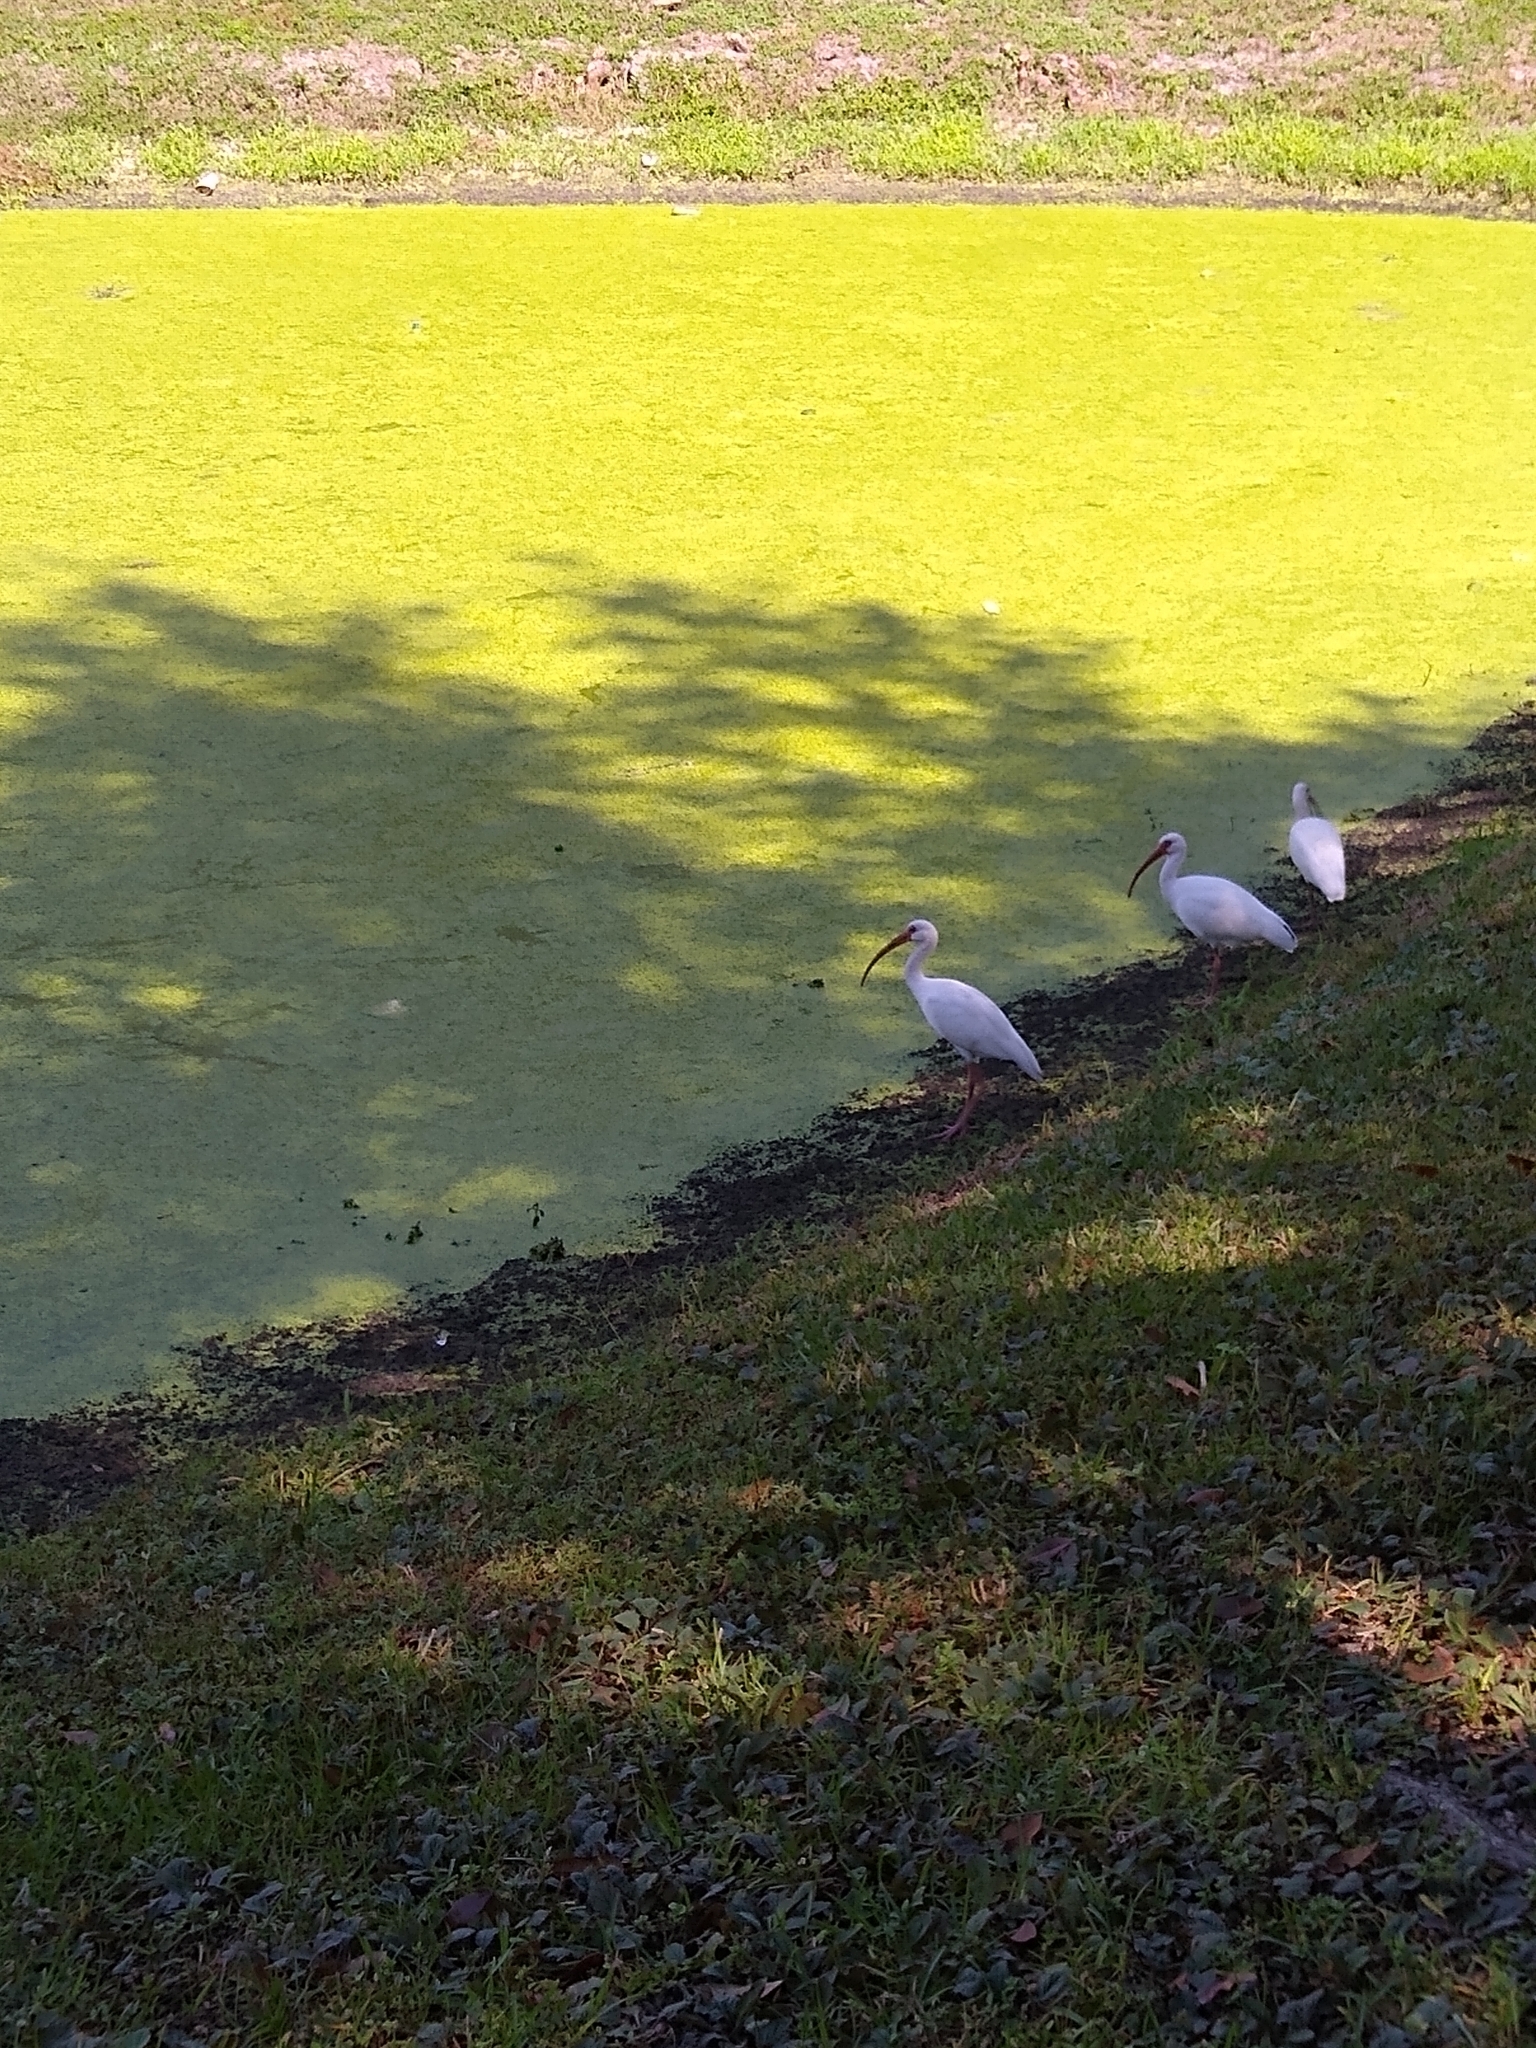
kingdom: Animalia
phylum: Chordata
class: Aves
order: Pelecaniformes
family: Threskiornithidae
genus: Eudocimus
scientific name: Eudocimus albus
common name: White ibis
